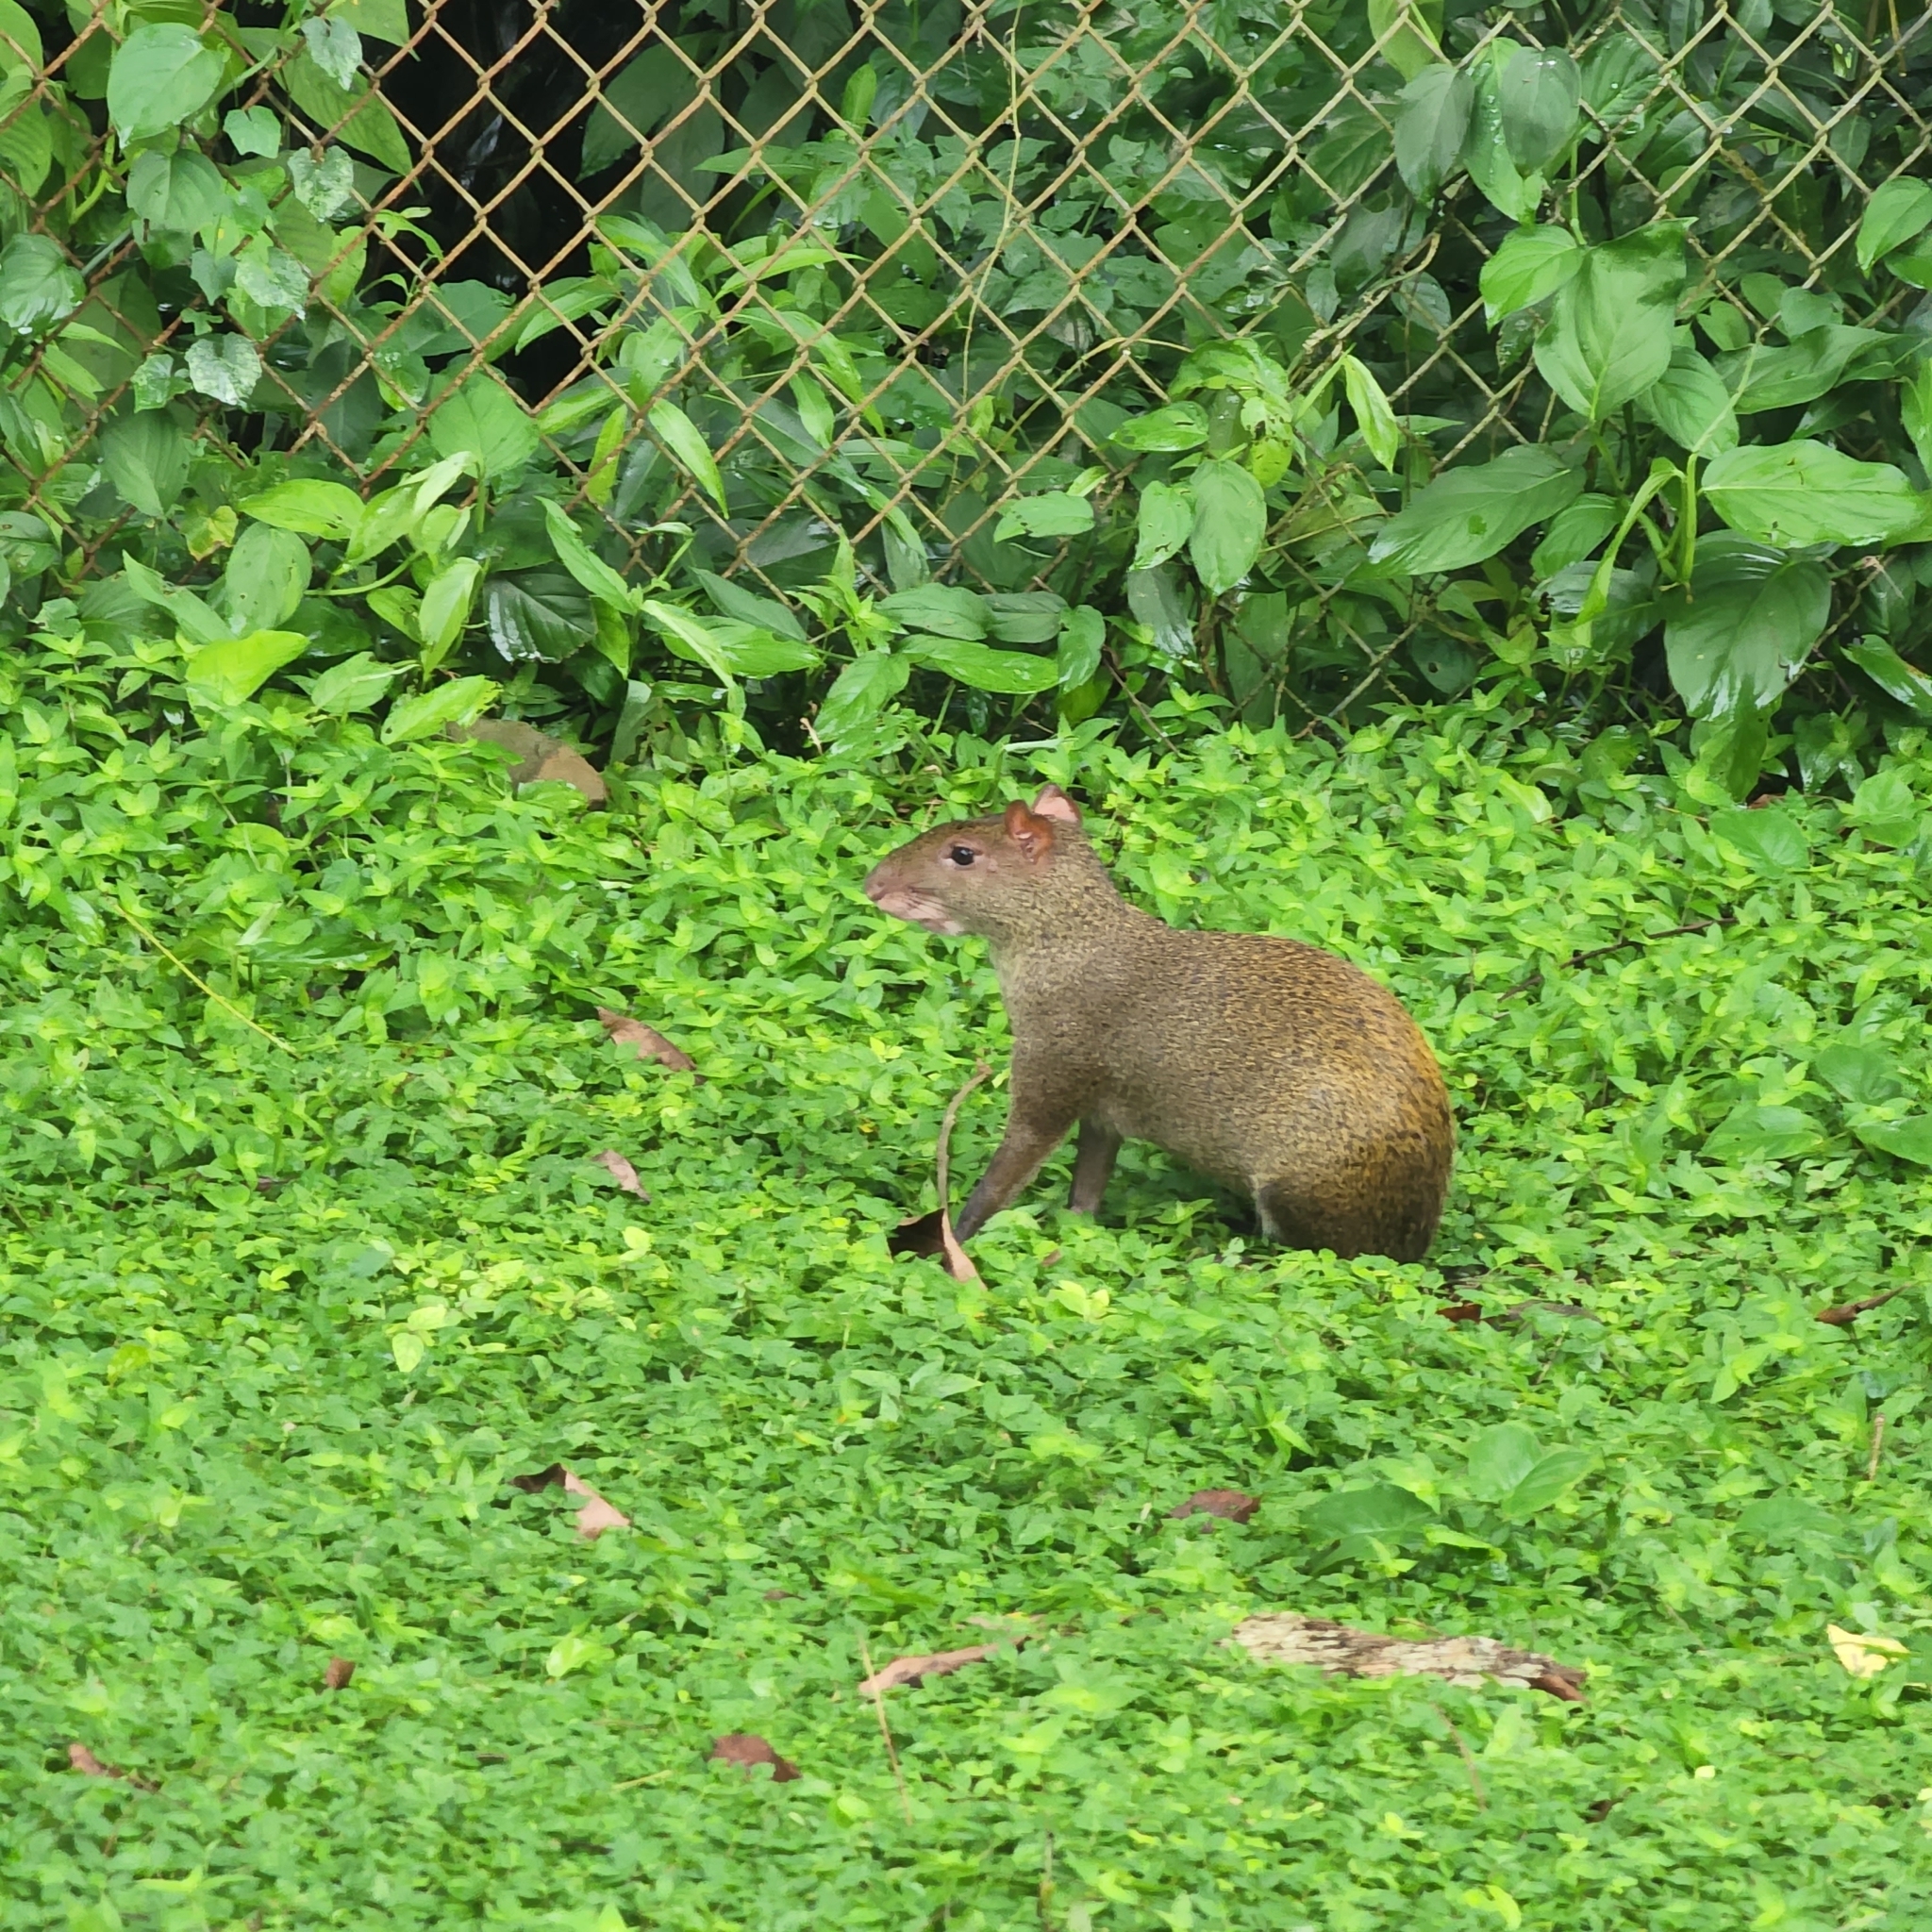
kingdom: Animalia
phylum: Chordata
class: Mammalia
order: Rodentia
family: Dasyproctidae
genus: Dasyprocta
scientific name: Dasyprocta punctata
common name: Central american agouti
